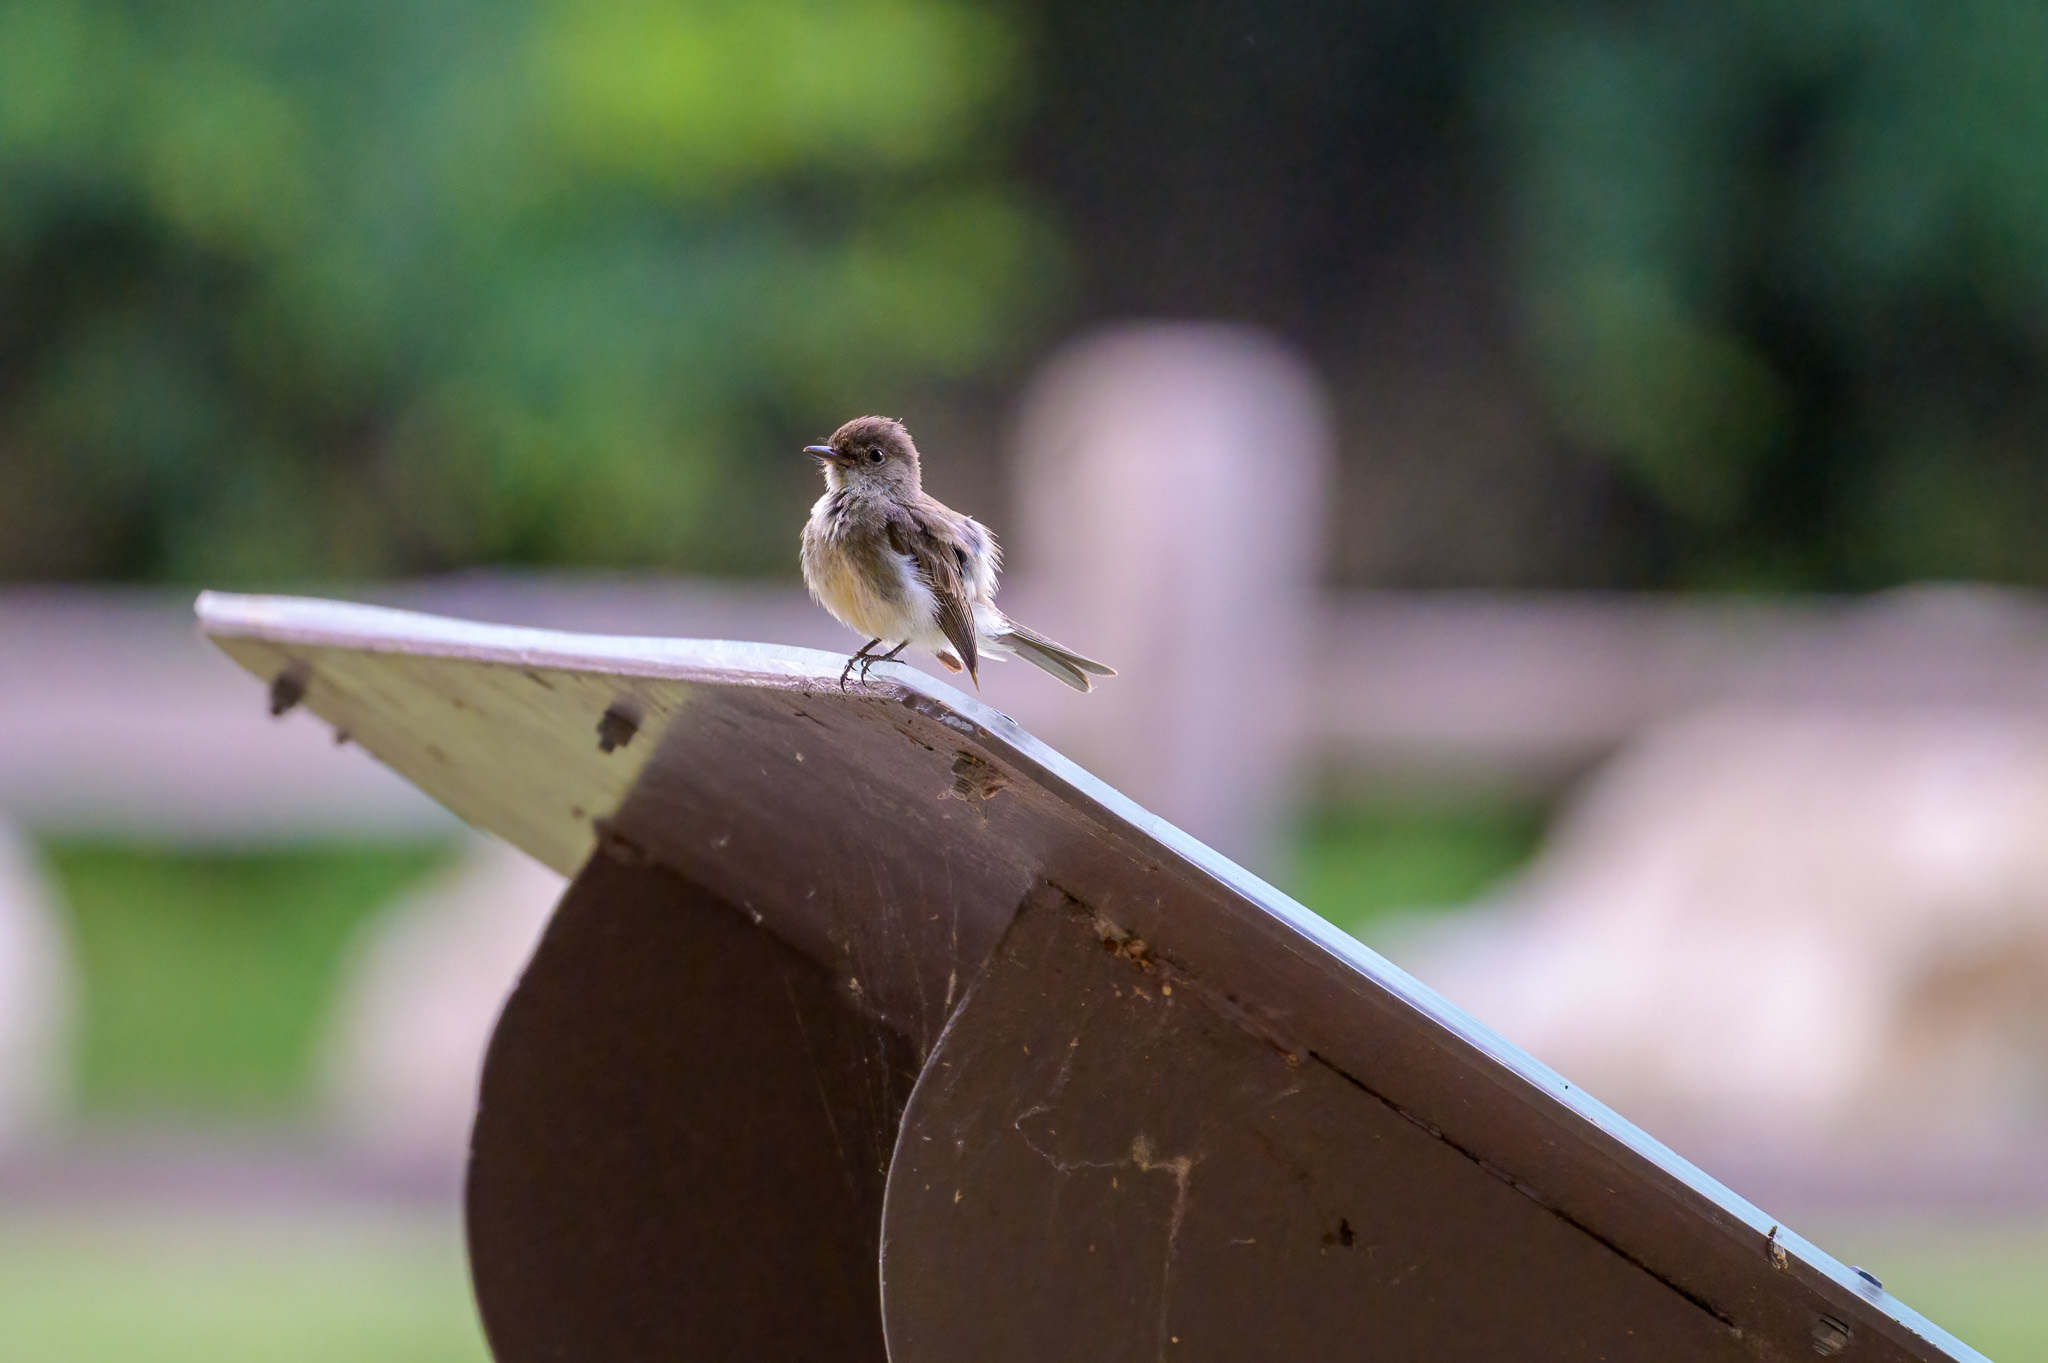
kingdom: Animalia
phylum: Chordata
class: Aves
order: Passeriformes
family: Tyrannidae
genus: Sayornis
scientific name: Sayornis phoebe
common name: Eastern phoebe
